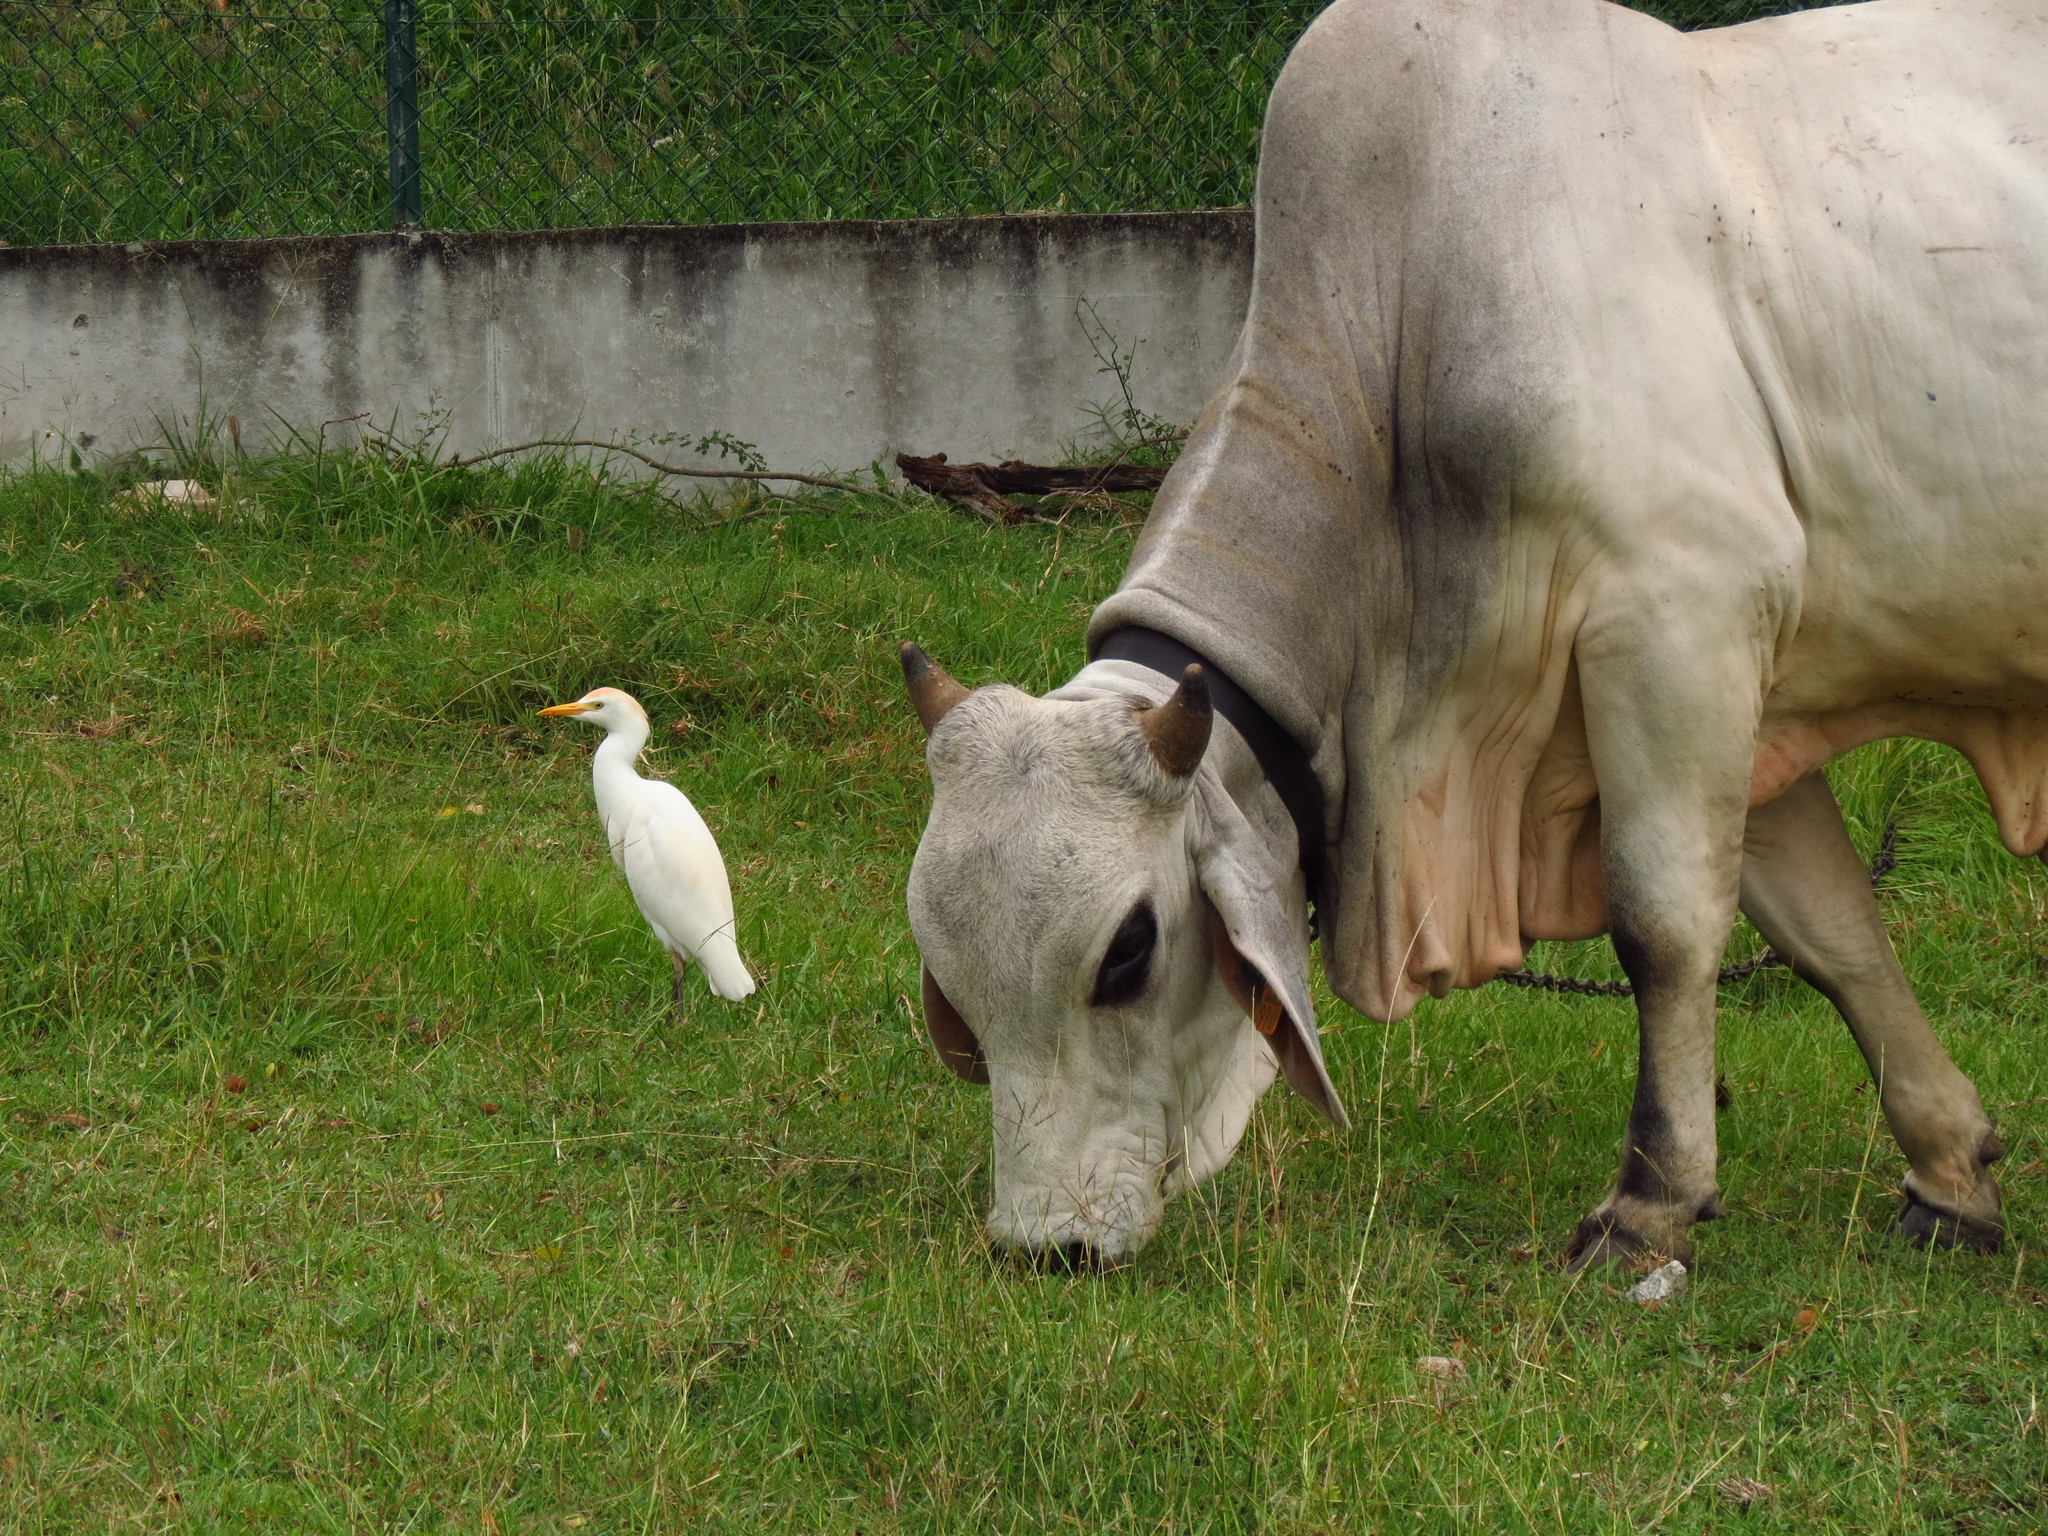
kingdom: Animalia
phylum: Chordata
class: Aves
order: Pelecaniformes
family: Ardeidae
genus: Bubulcus
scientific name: Bubulcus ibis
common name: Cattle egret
